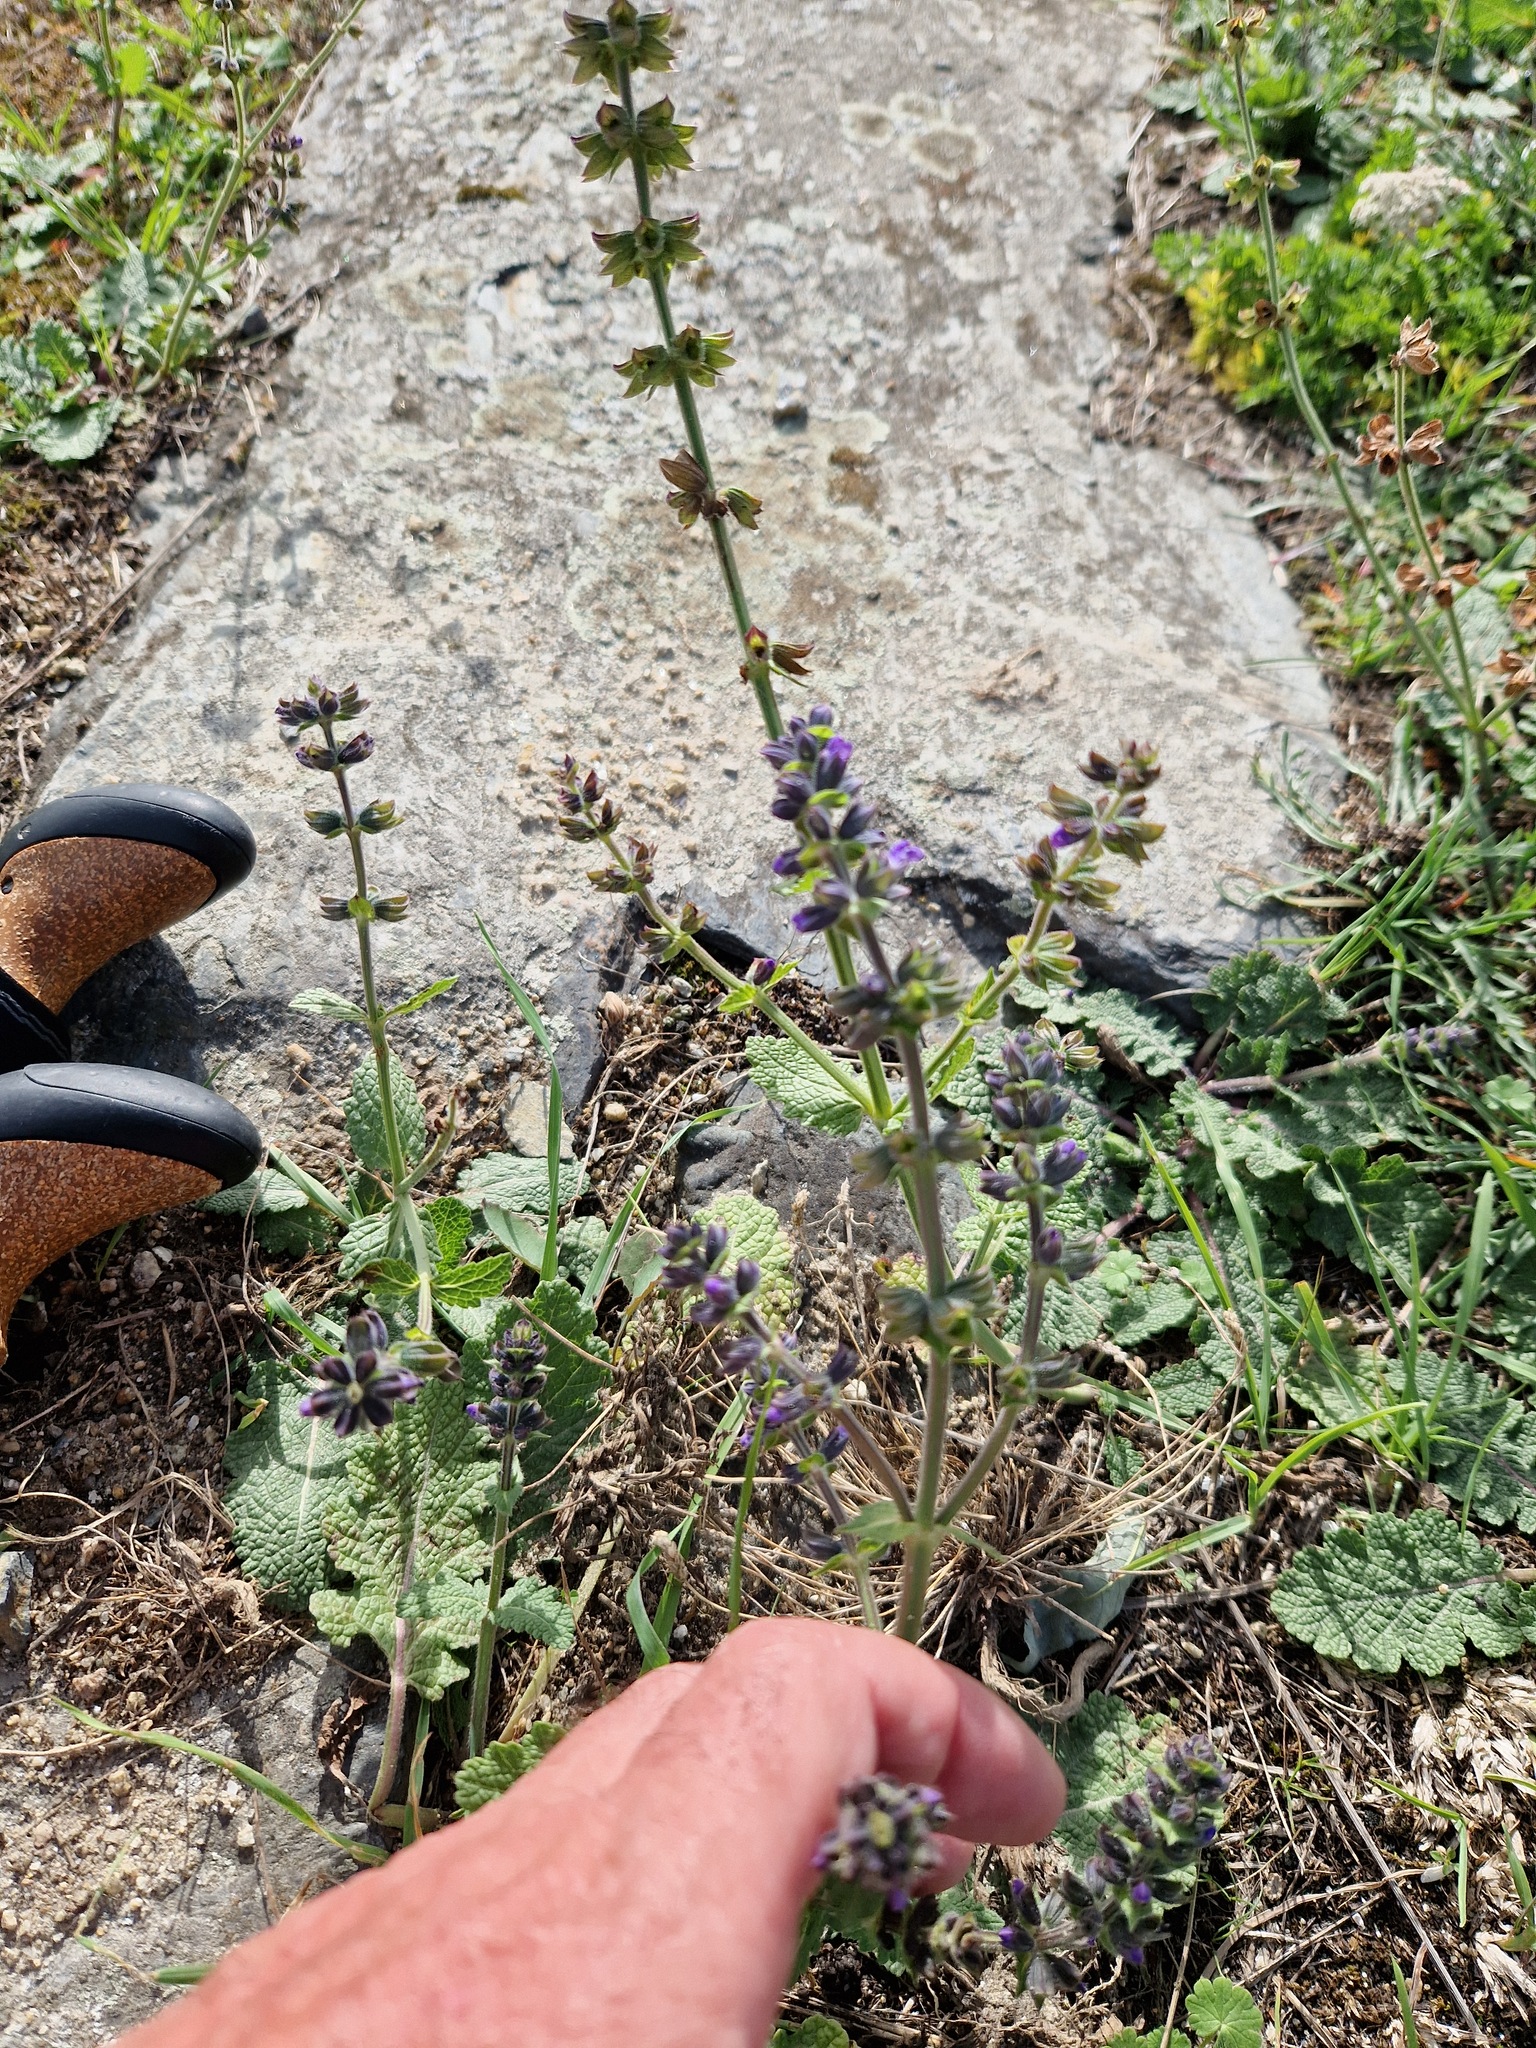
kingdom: Plantae
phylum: Tracheophyta
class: Magnoliopsida
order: Lamiales
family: Lamiaceae
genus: Salvia
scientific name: Salvia verbenaca
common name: Wild clary
